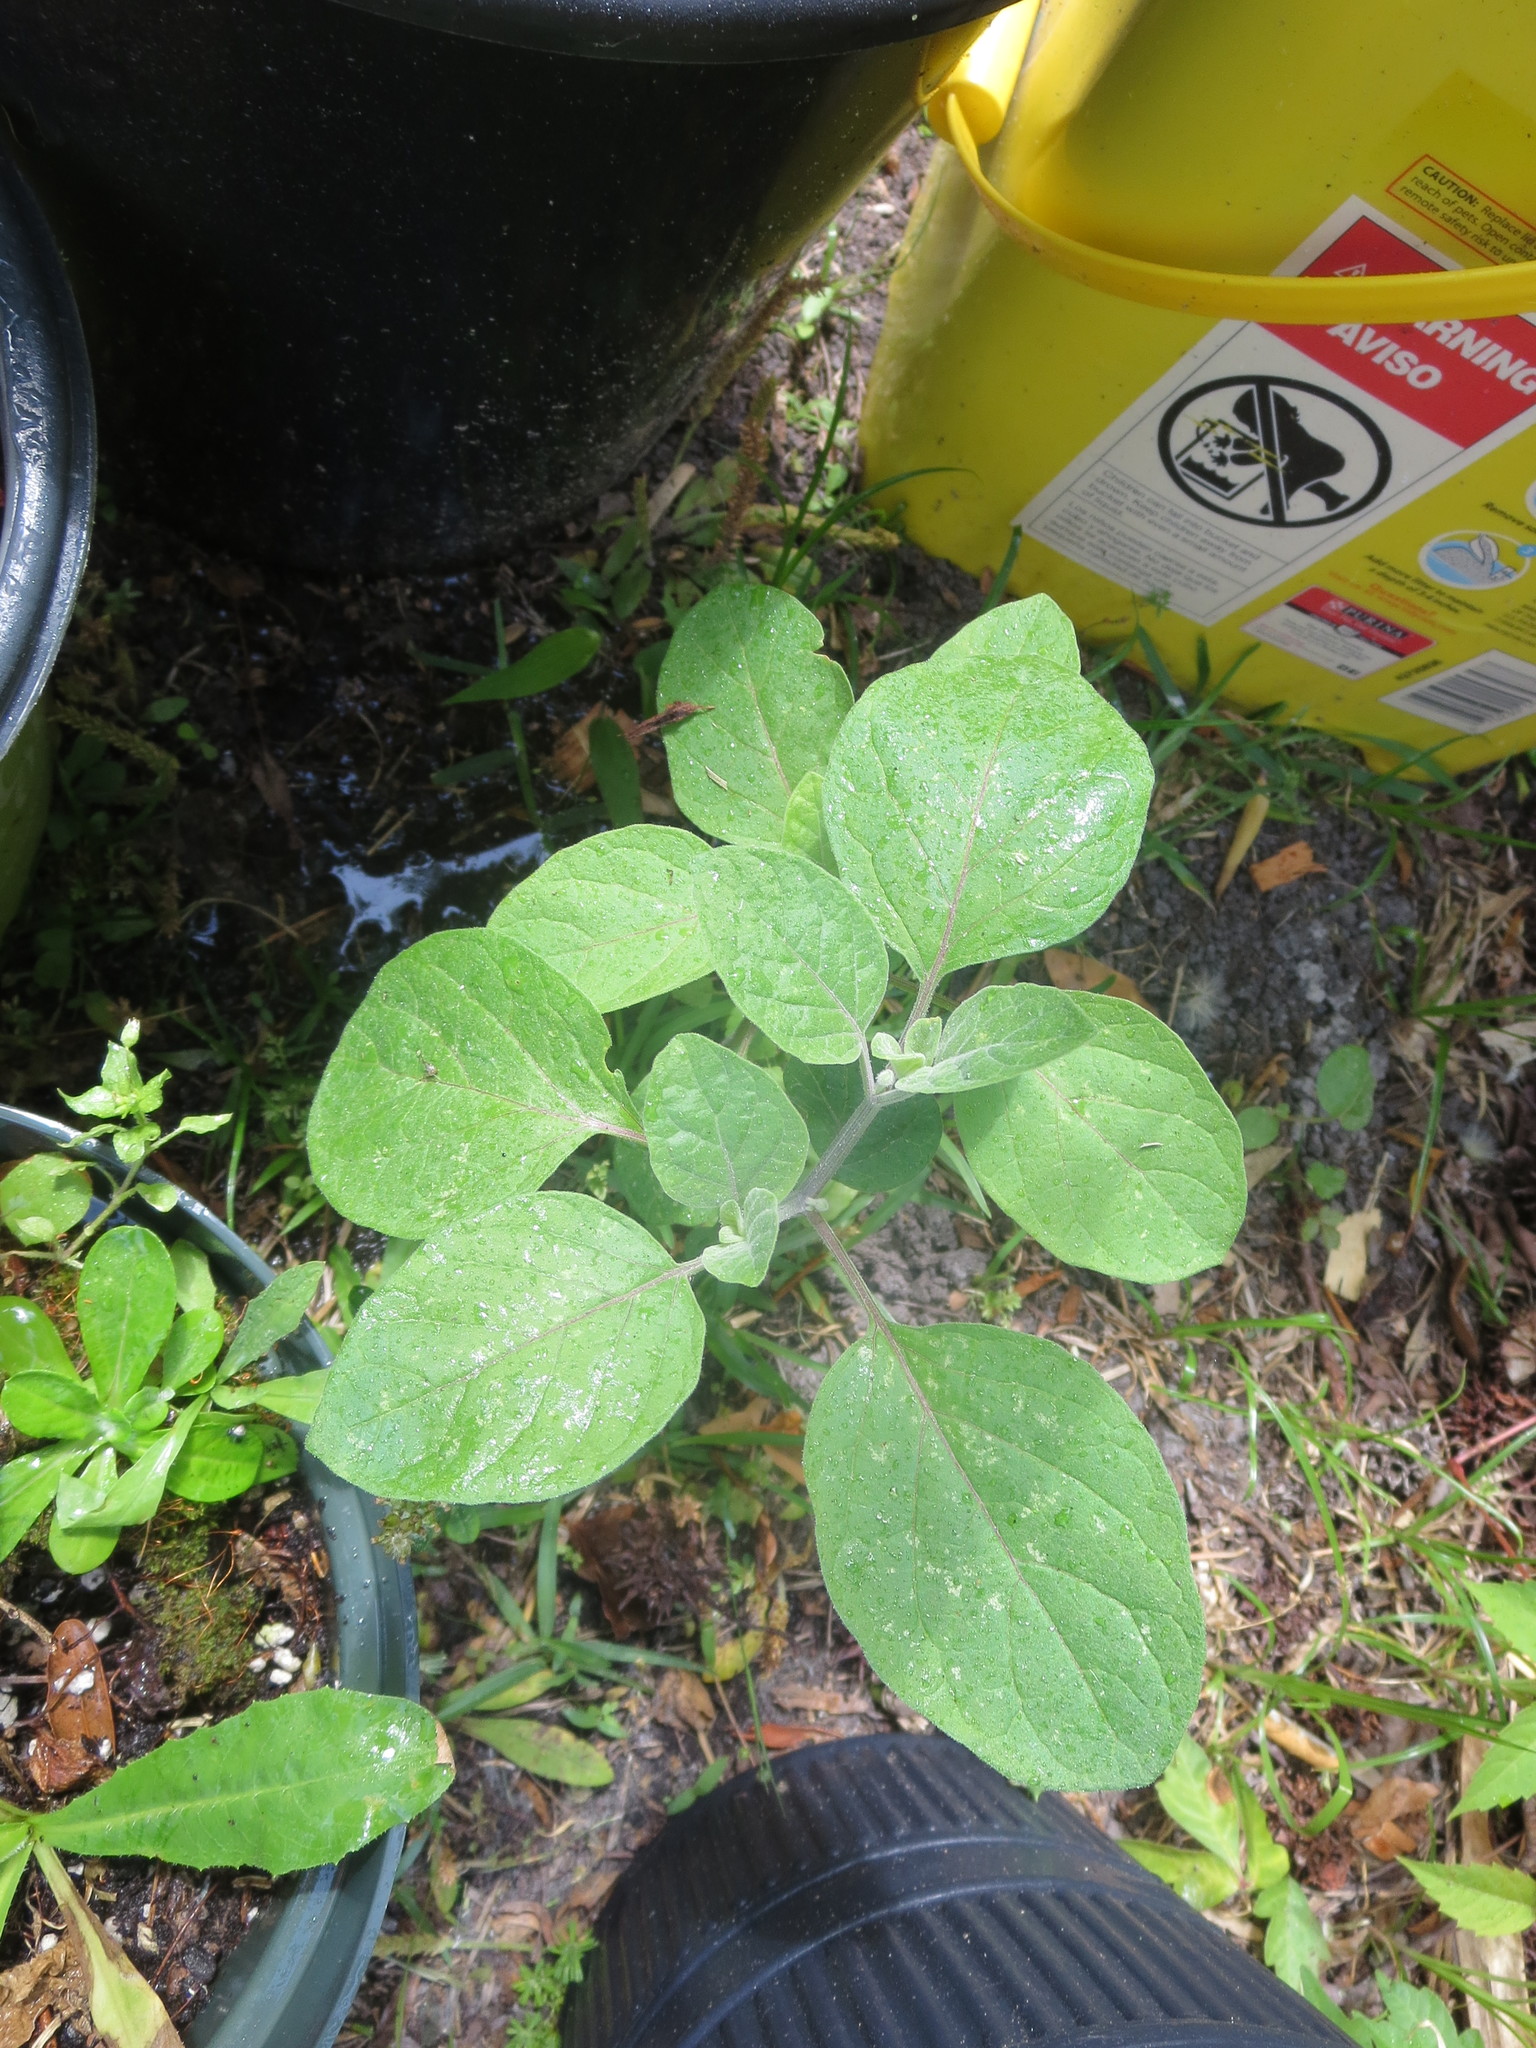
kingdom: Plantae
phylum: Tracheophyta
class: Magnoliopsida
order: Solanales
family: Solanaceae
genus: Physalis
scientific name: Physalis walteri
